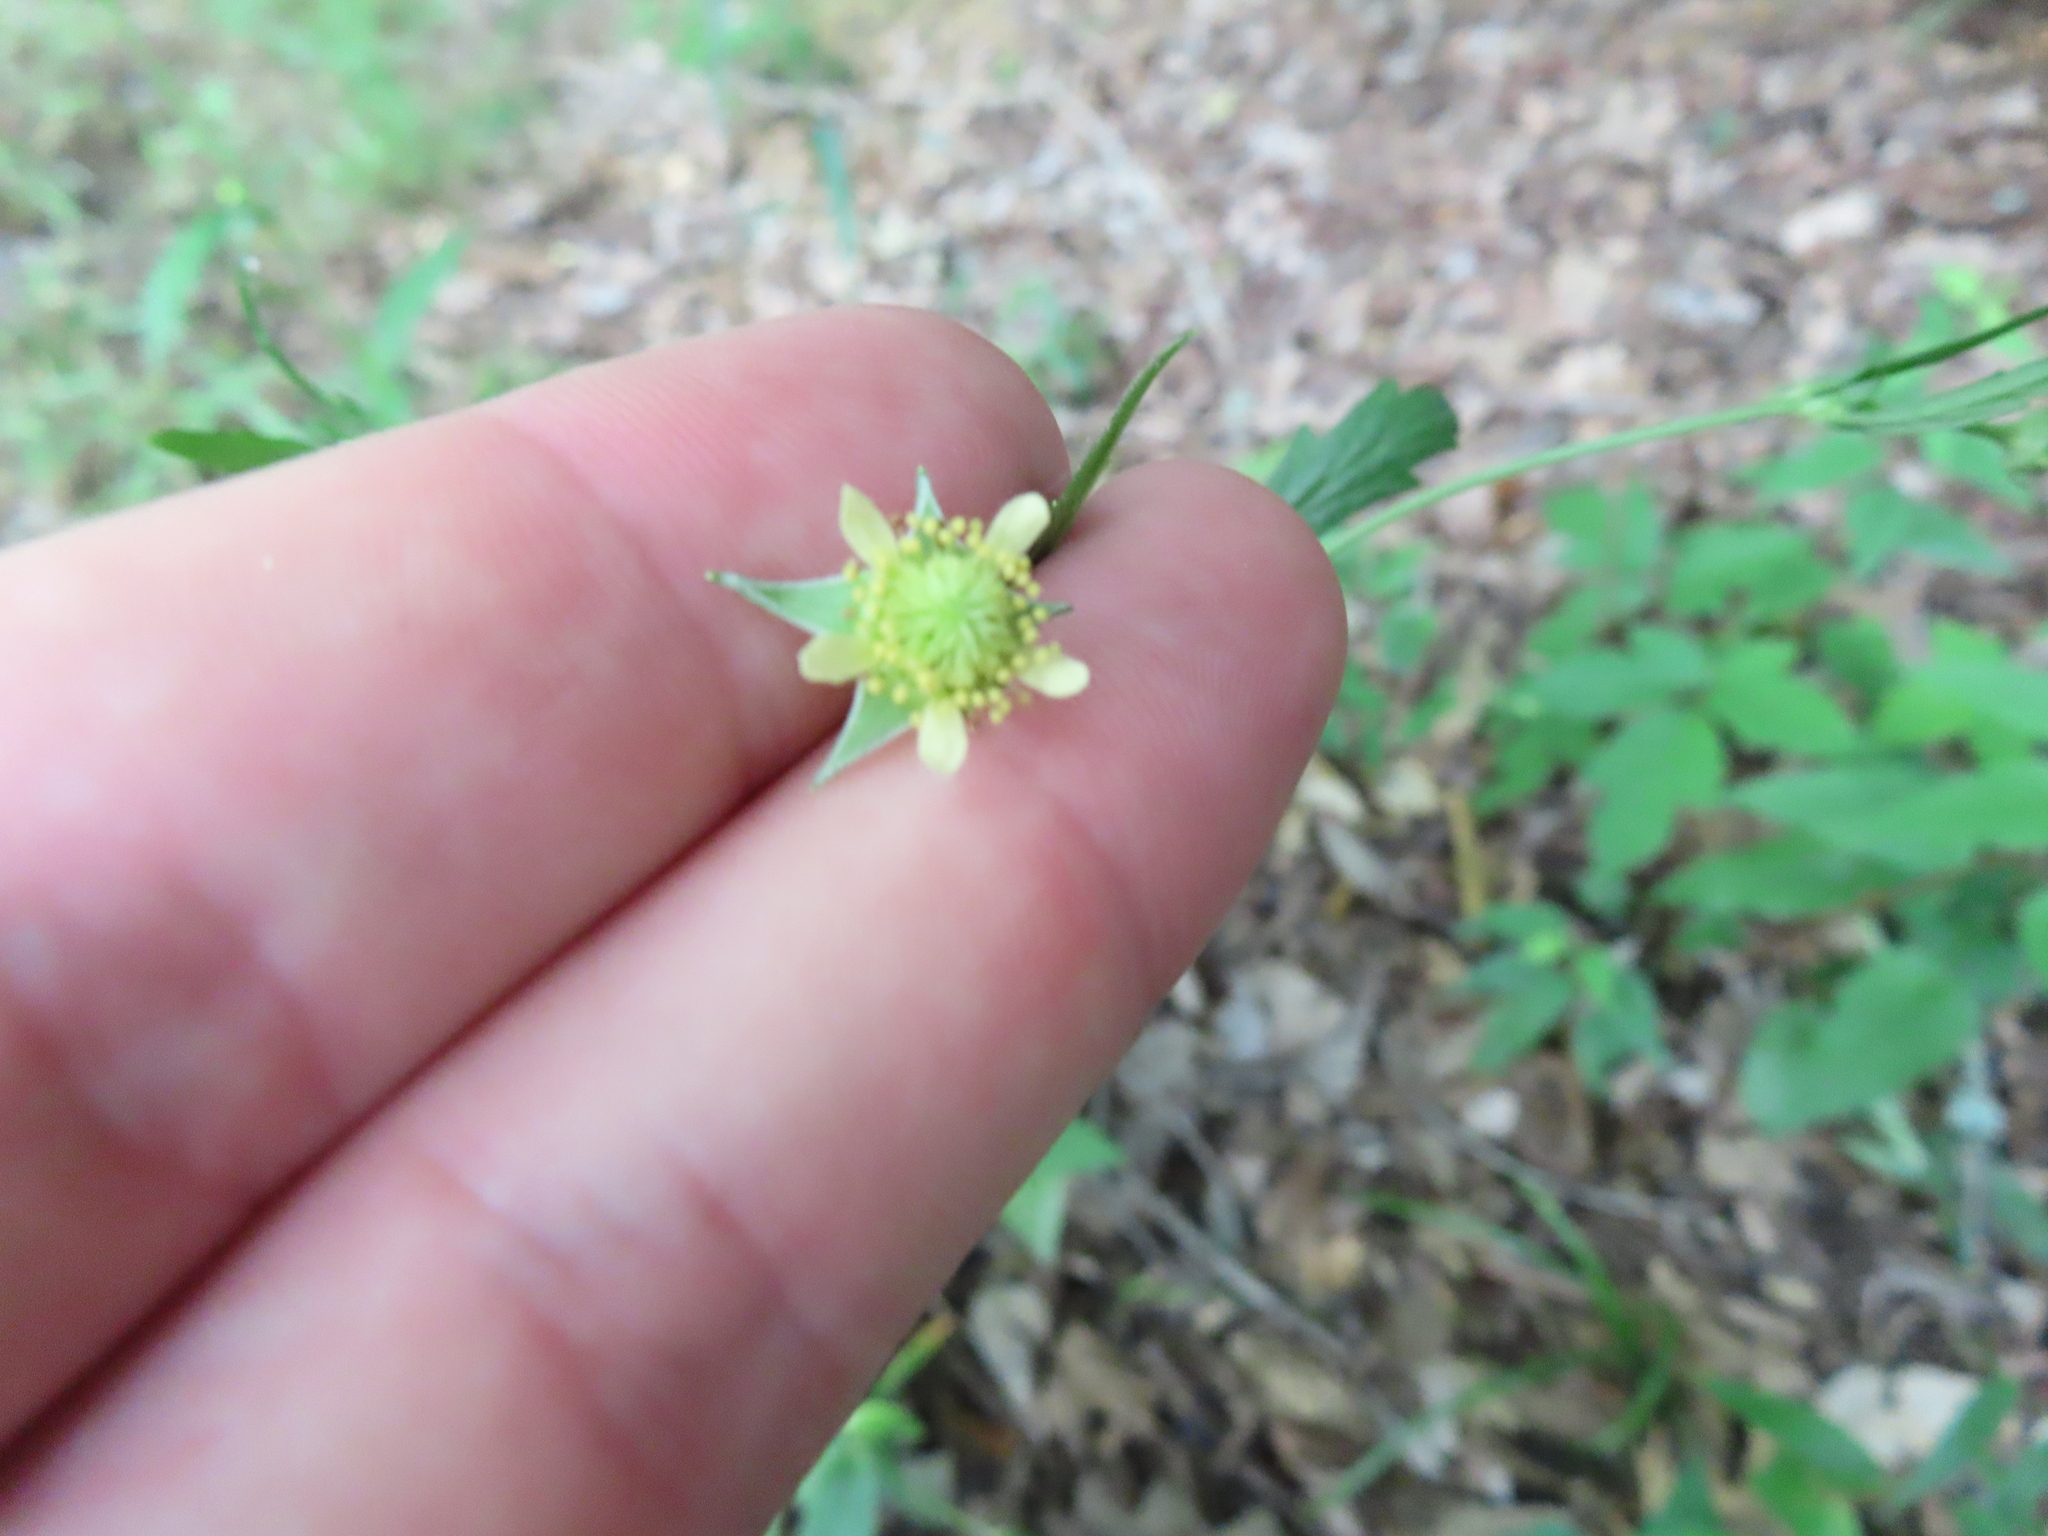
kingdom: Plantae
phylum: Tracheophyta
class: Magnoliopsida
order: Rosales
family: Rosaceae
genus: Geum
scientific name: Geum virginianum
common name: Cream avens
